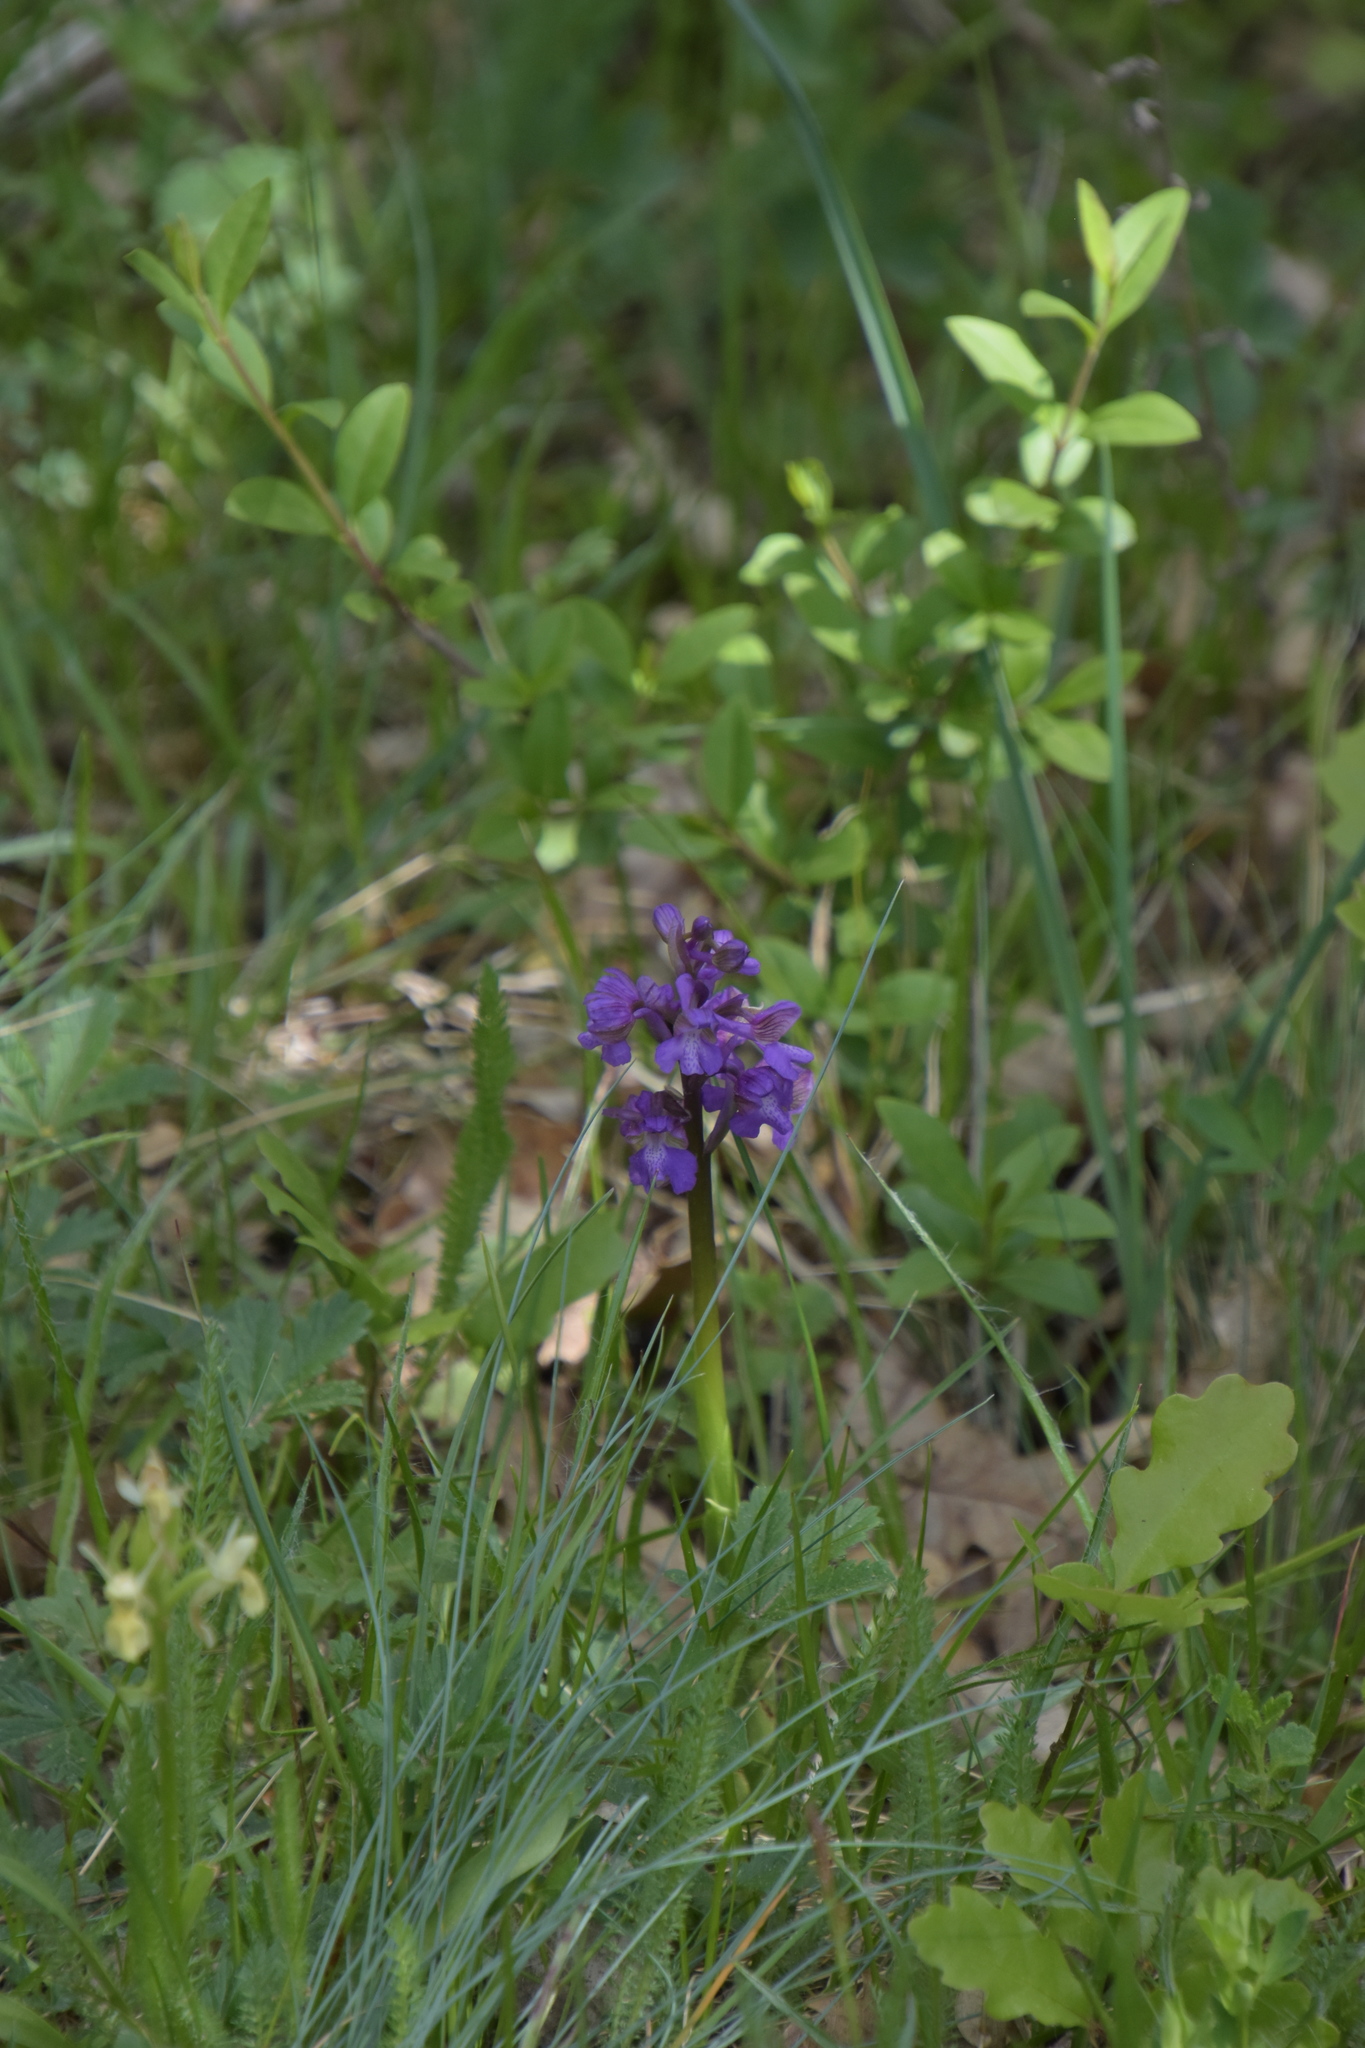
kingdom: Plantae
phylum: Tracheophyta
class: Liliopsida
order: Asparagales
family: Orchidaceae
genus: Anacamptis
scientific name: Anacamptis morio
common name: Green-winged orchid
